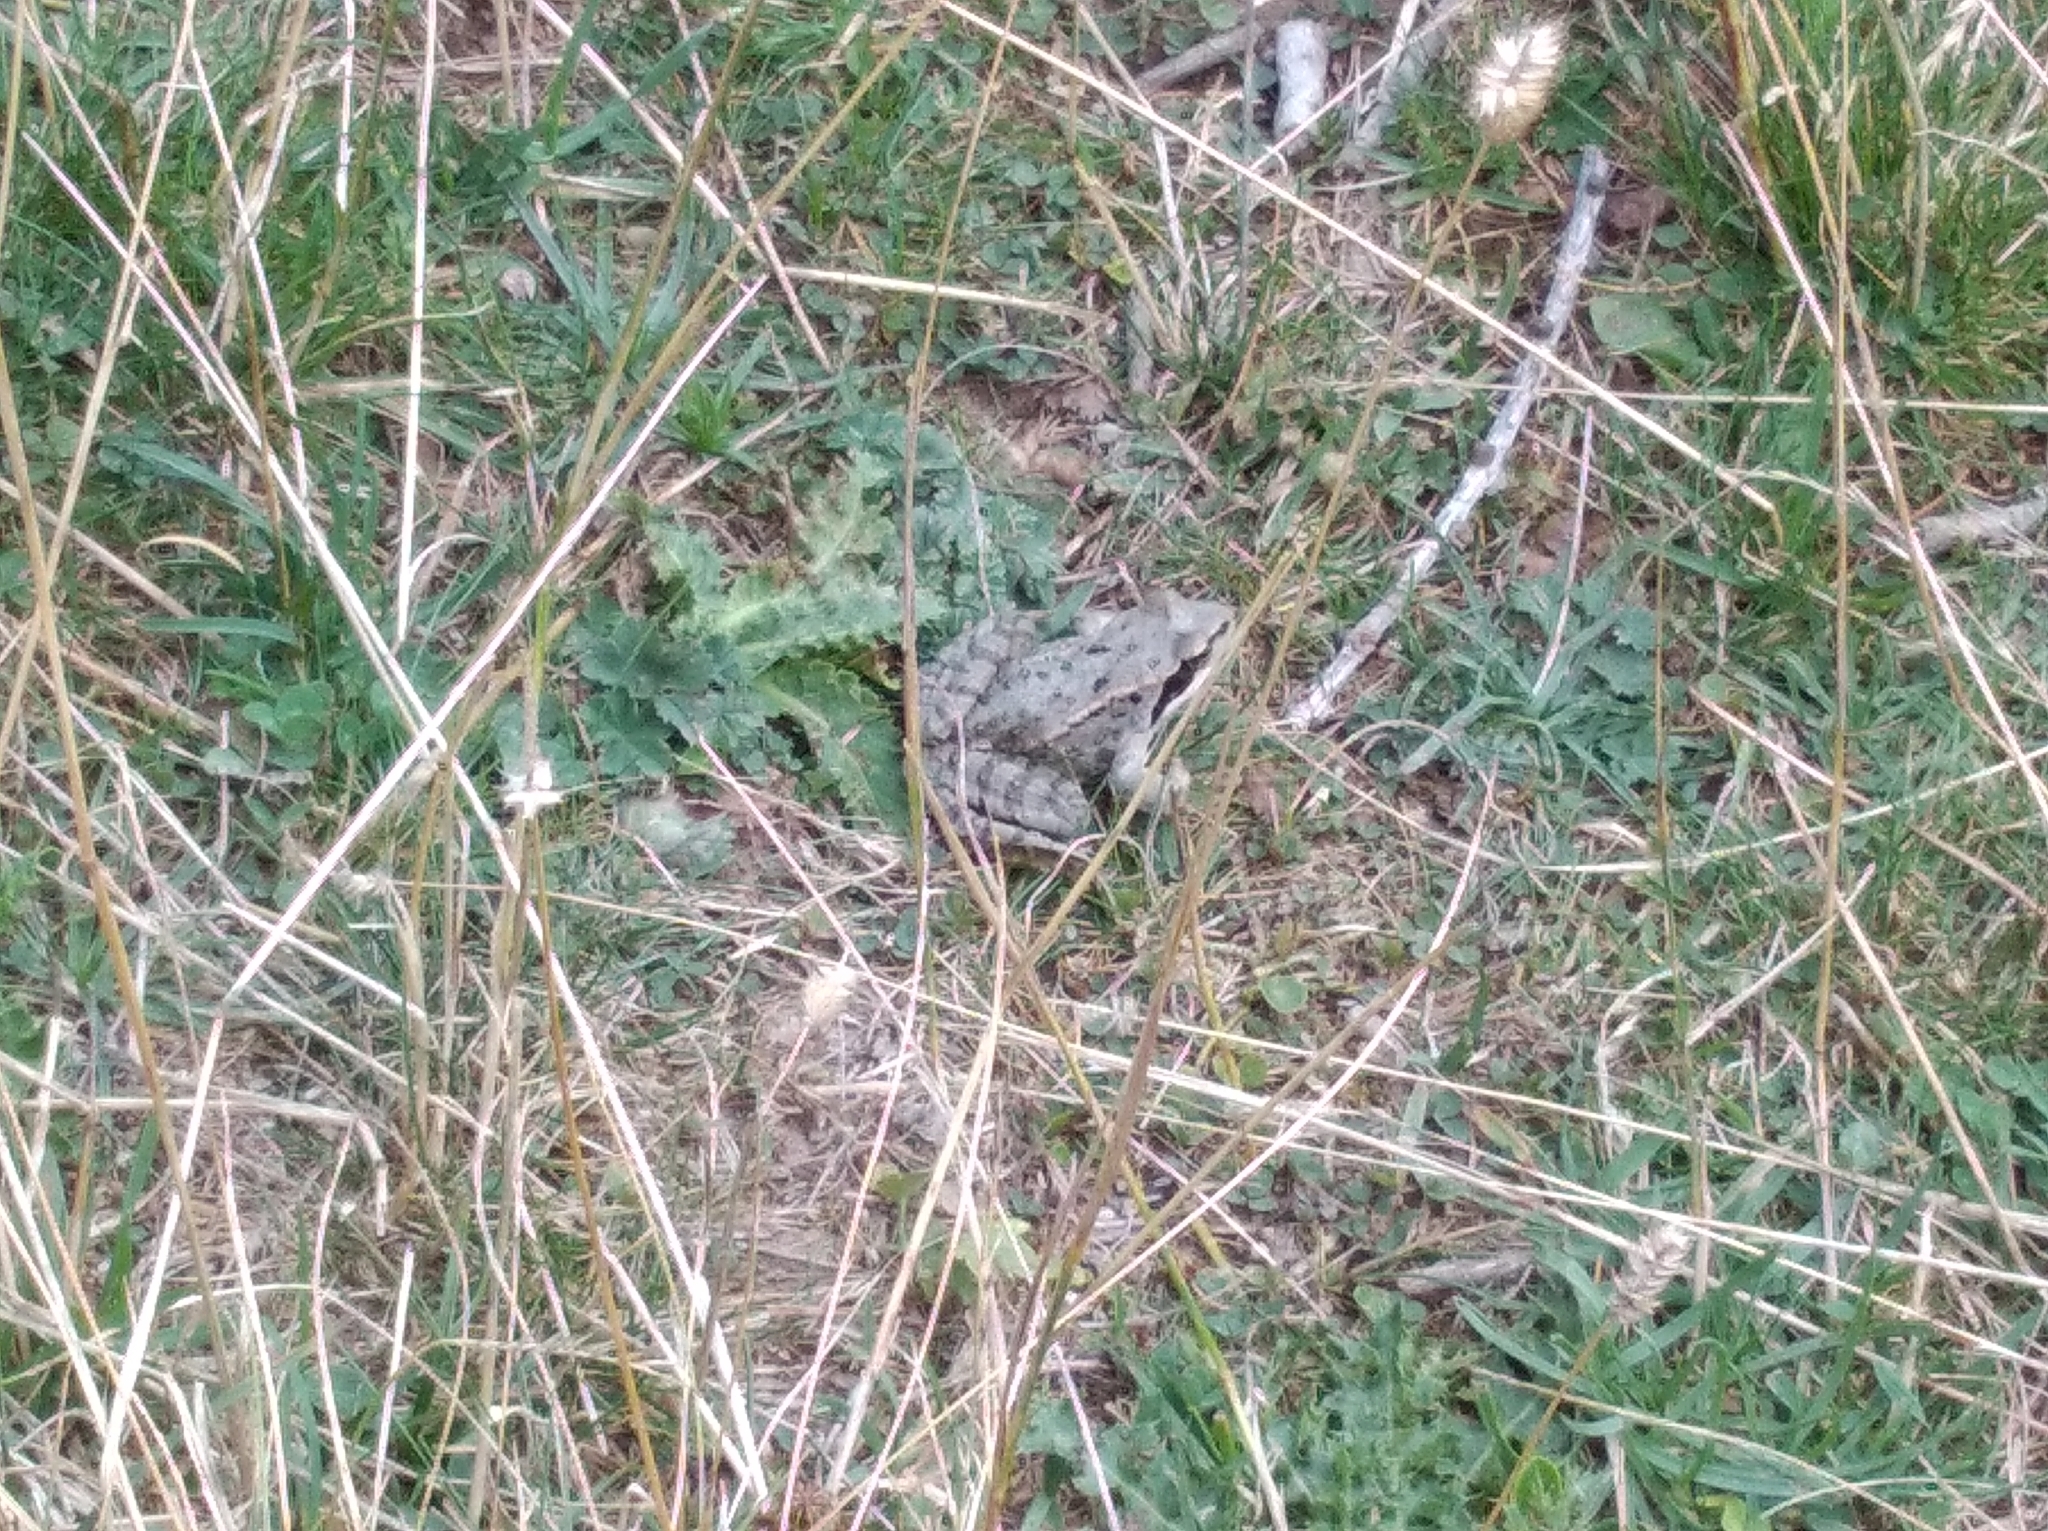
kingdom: Animalia
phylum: Chordata
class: Amphibia
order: Anura
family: Ranidae
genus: Rana
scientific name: Rana temporaria
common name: Common frog
